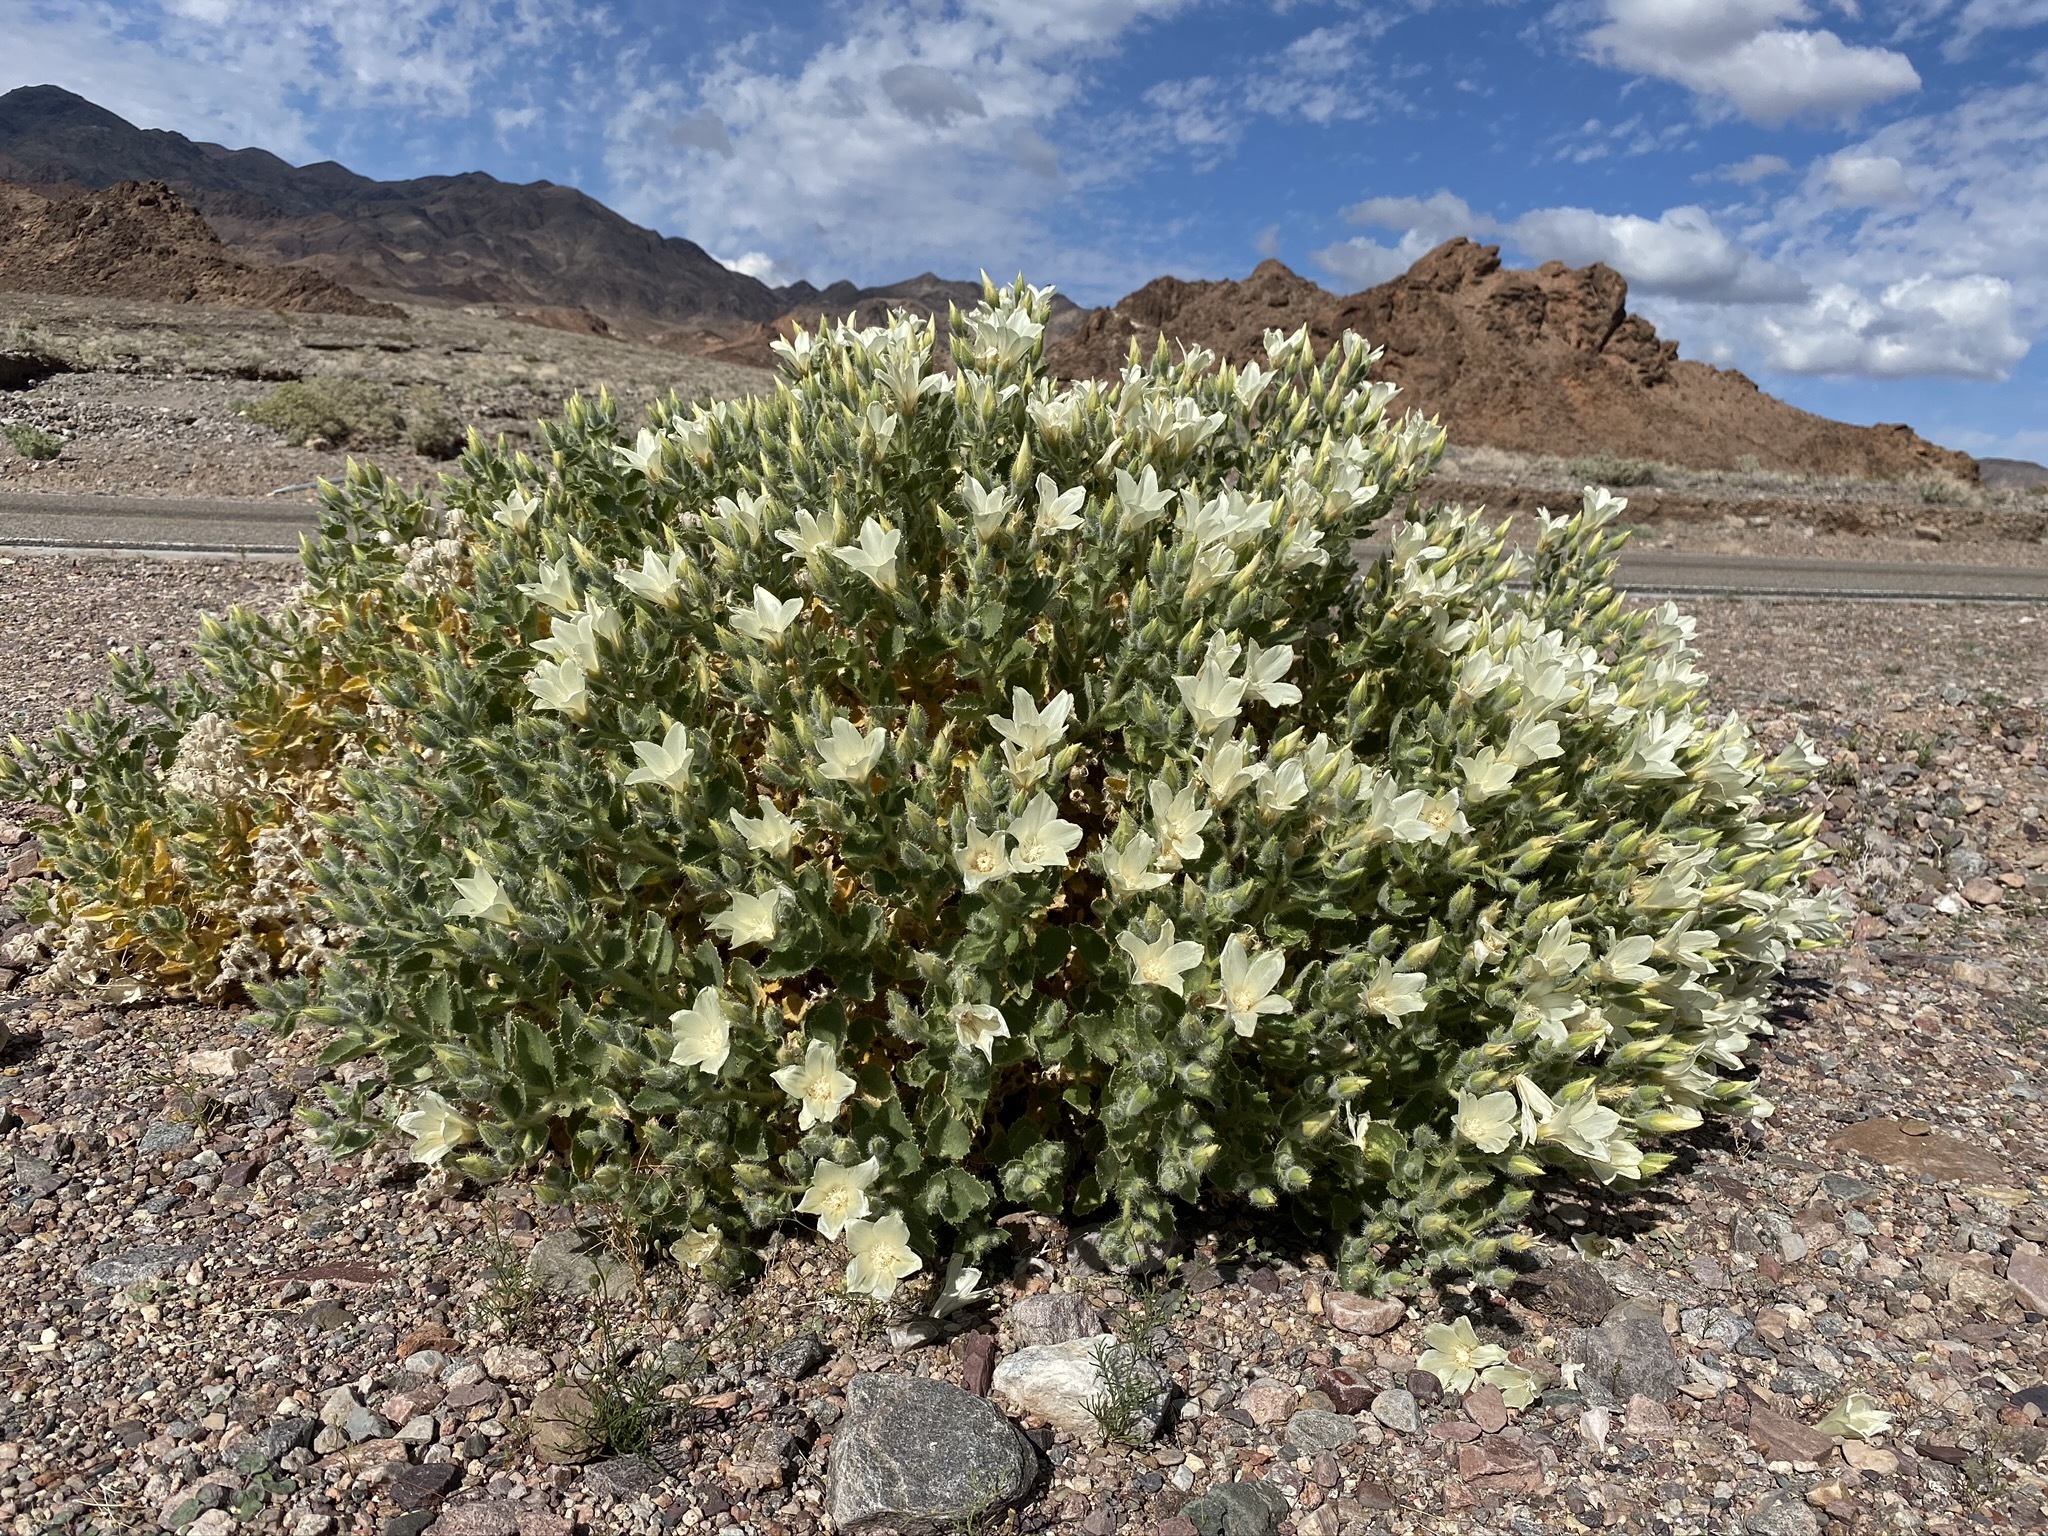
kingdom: Plantae
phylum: Tracheophyta
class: Magnoliopsida
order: Cornales
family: Loasaceae
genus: Eucnide
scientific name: Eucnide urens
